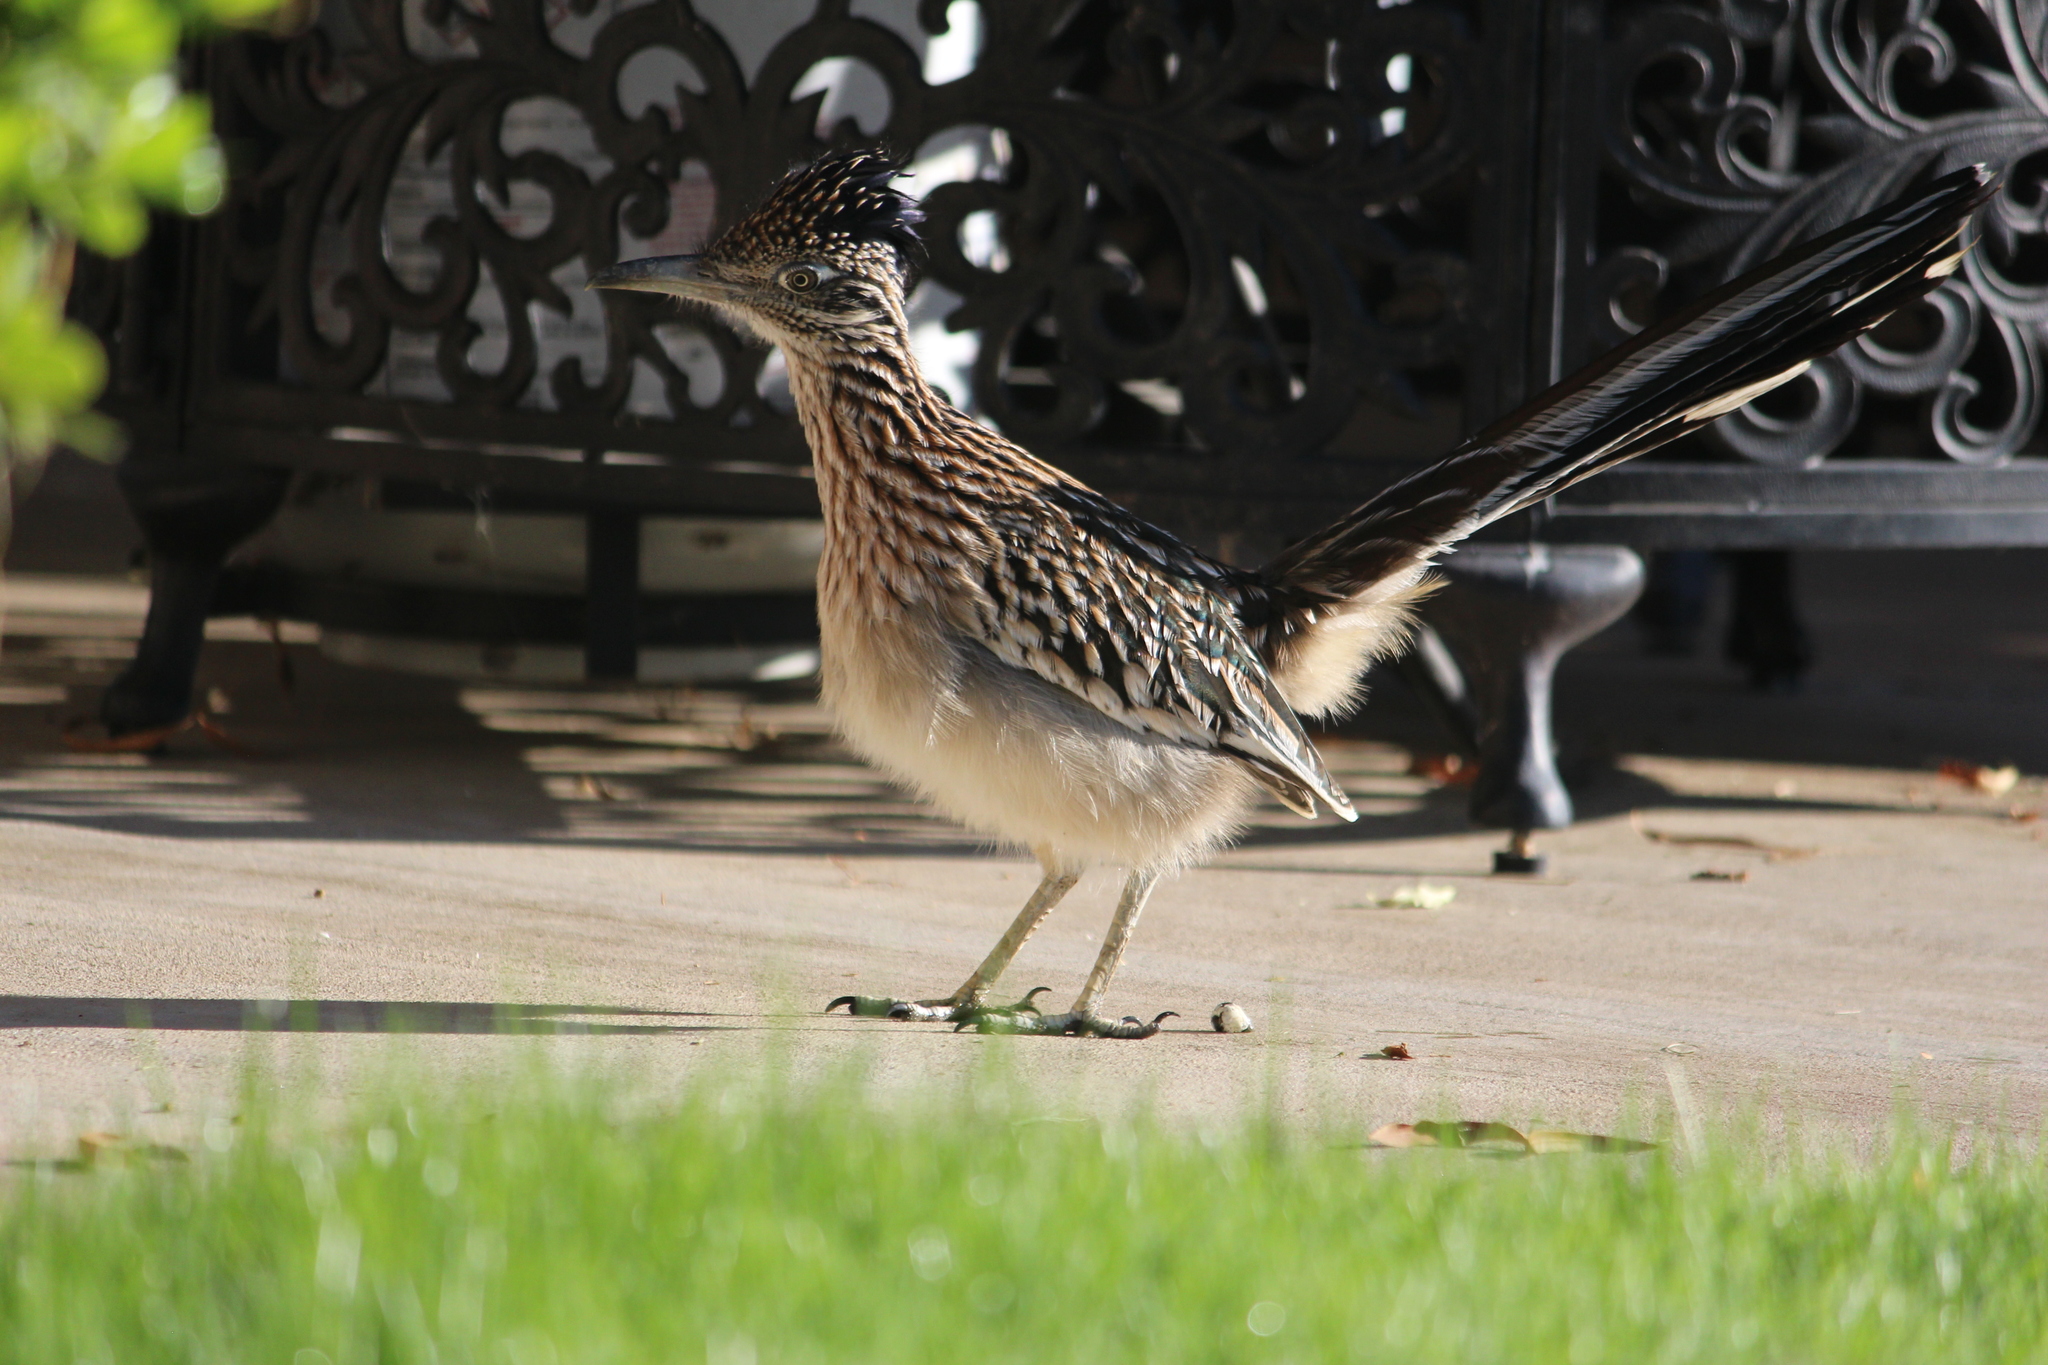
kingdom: Animalia
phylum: Chordata
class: Aves
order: Cuculiformes
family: Cuculidae
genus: Geococcyx
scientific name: Geococcyx californianus
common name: Greater roadrunner
